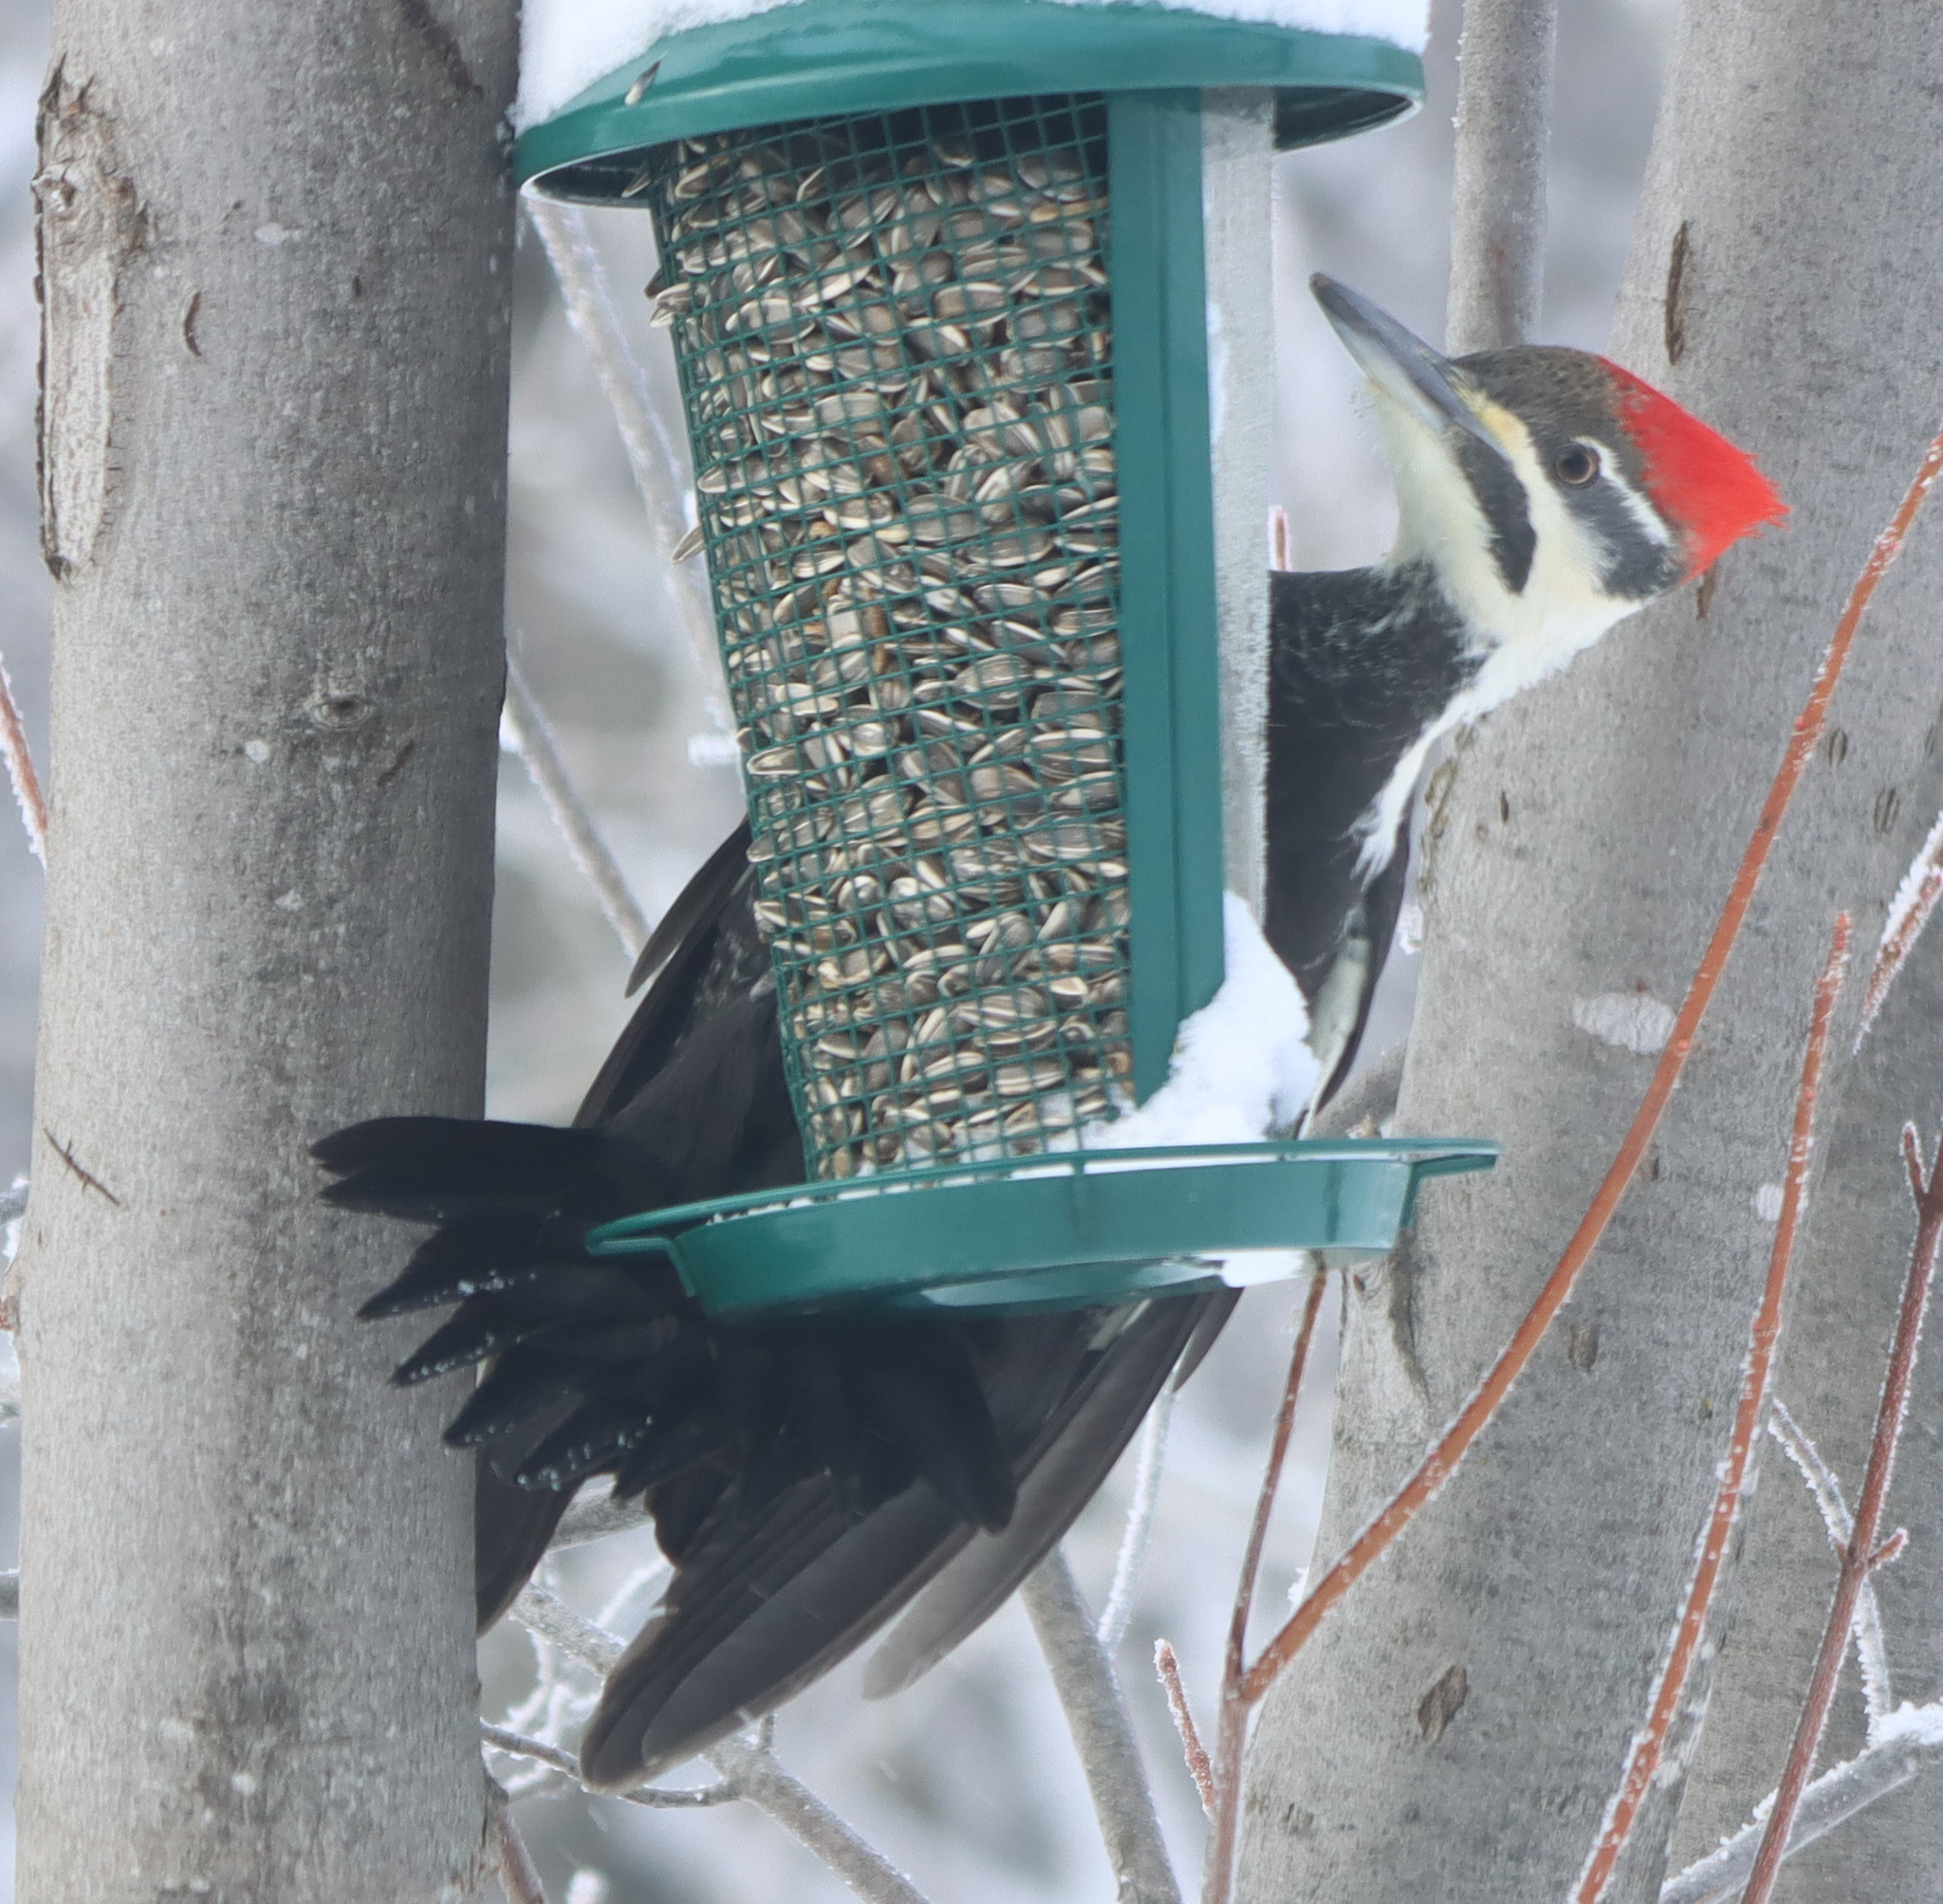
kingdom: Animalia
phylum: Chordata
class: Aves
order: Piciformes
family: Picidae
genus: Dryocopus
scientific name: Dryocopus pileatus
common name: Pileated woodpecker
